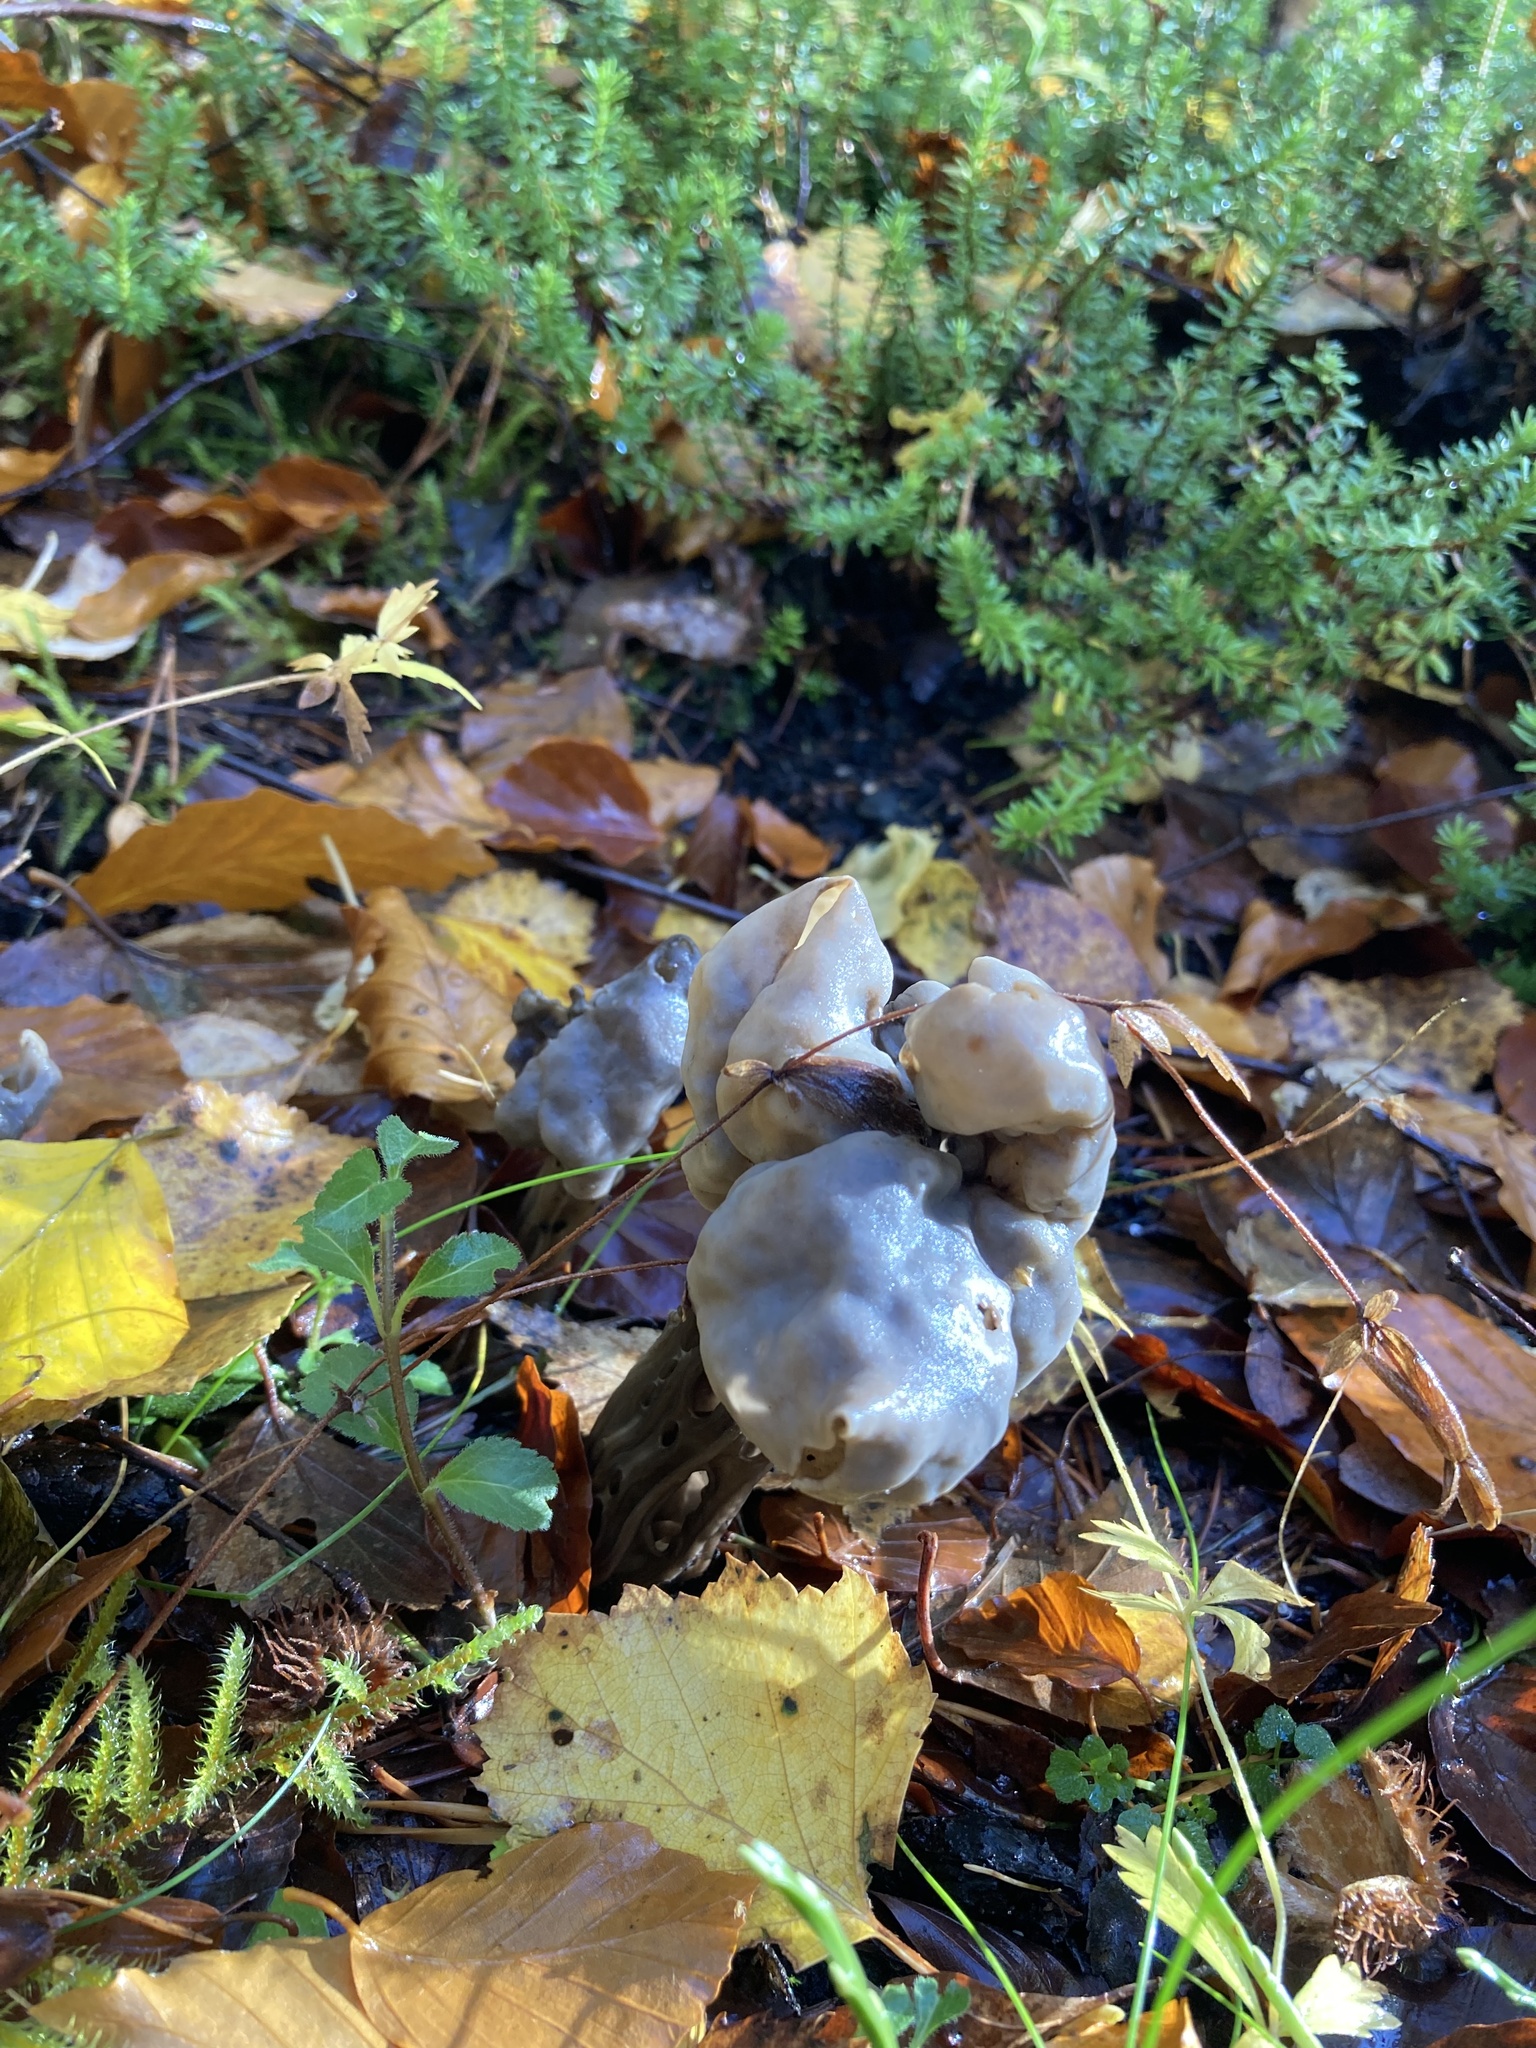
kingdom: Fungi
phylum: Ascomycota
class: Pezizomycetes
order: Pezizales
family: Helvellaceae
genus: Helvella
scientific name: Helvella lacunosa
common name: Elfin saddle
